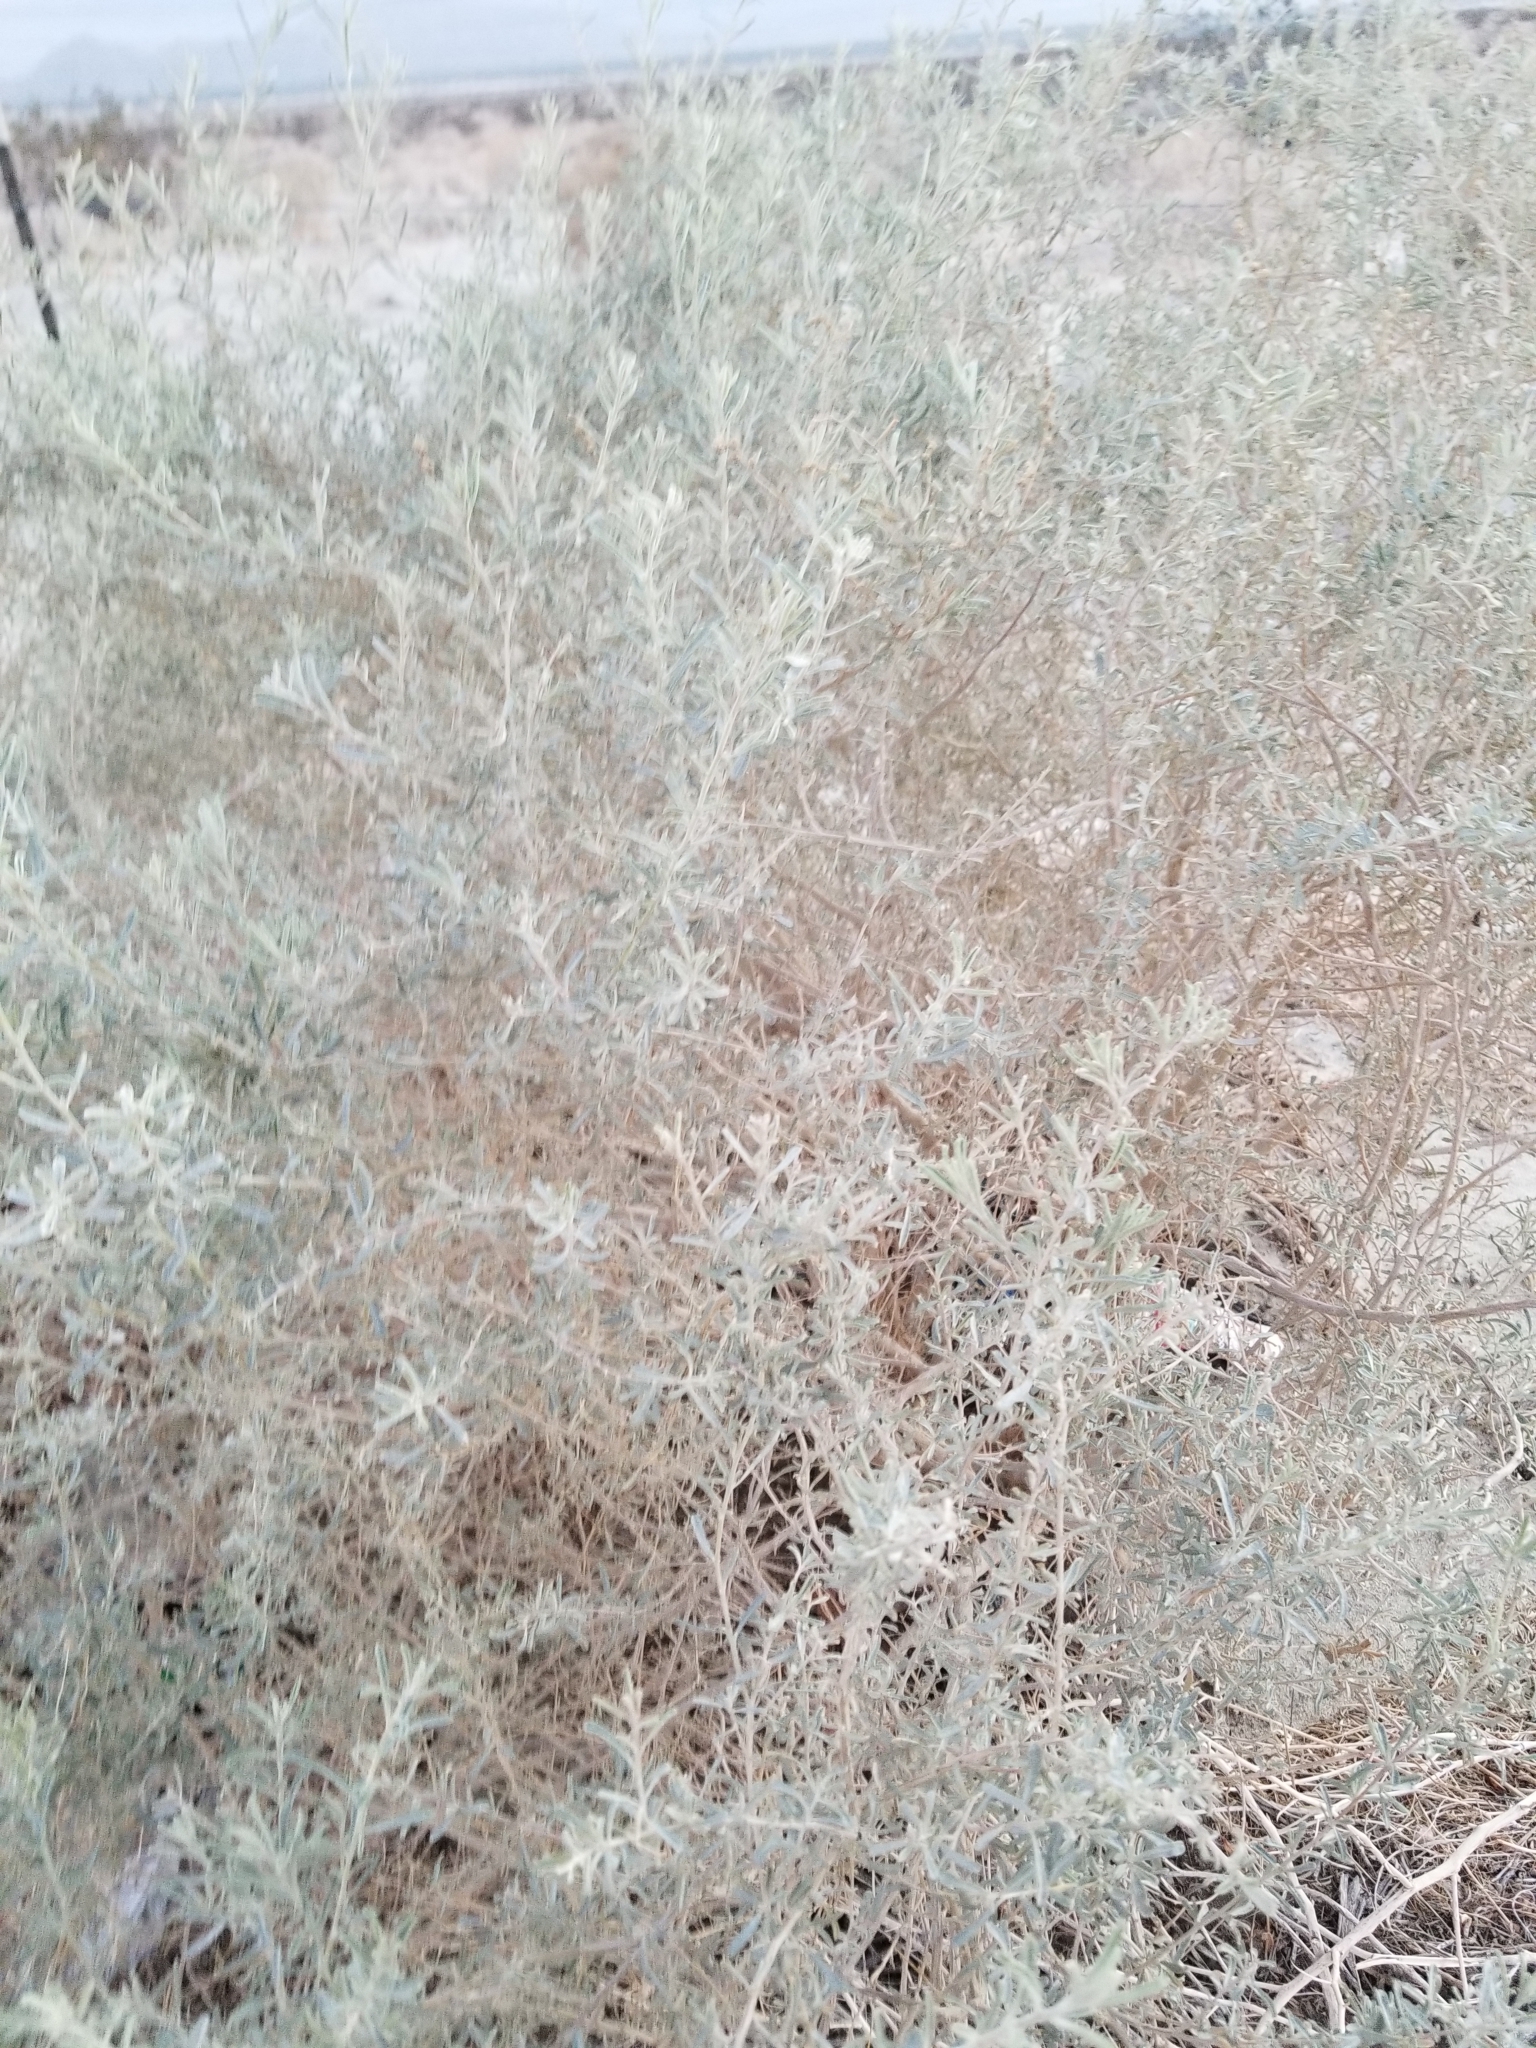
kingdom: Plantae
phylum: Tracheophyta
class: Magnoliopsida
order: Caryophyllales
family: Amaranthaceae
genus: Atriplex
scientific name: Atriplex canescens
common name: Four-wing saltbush
